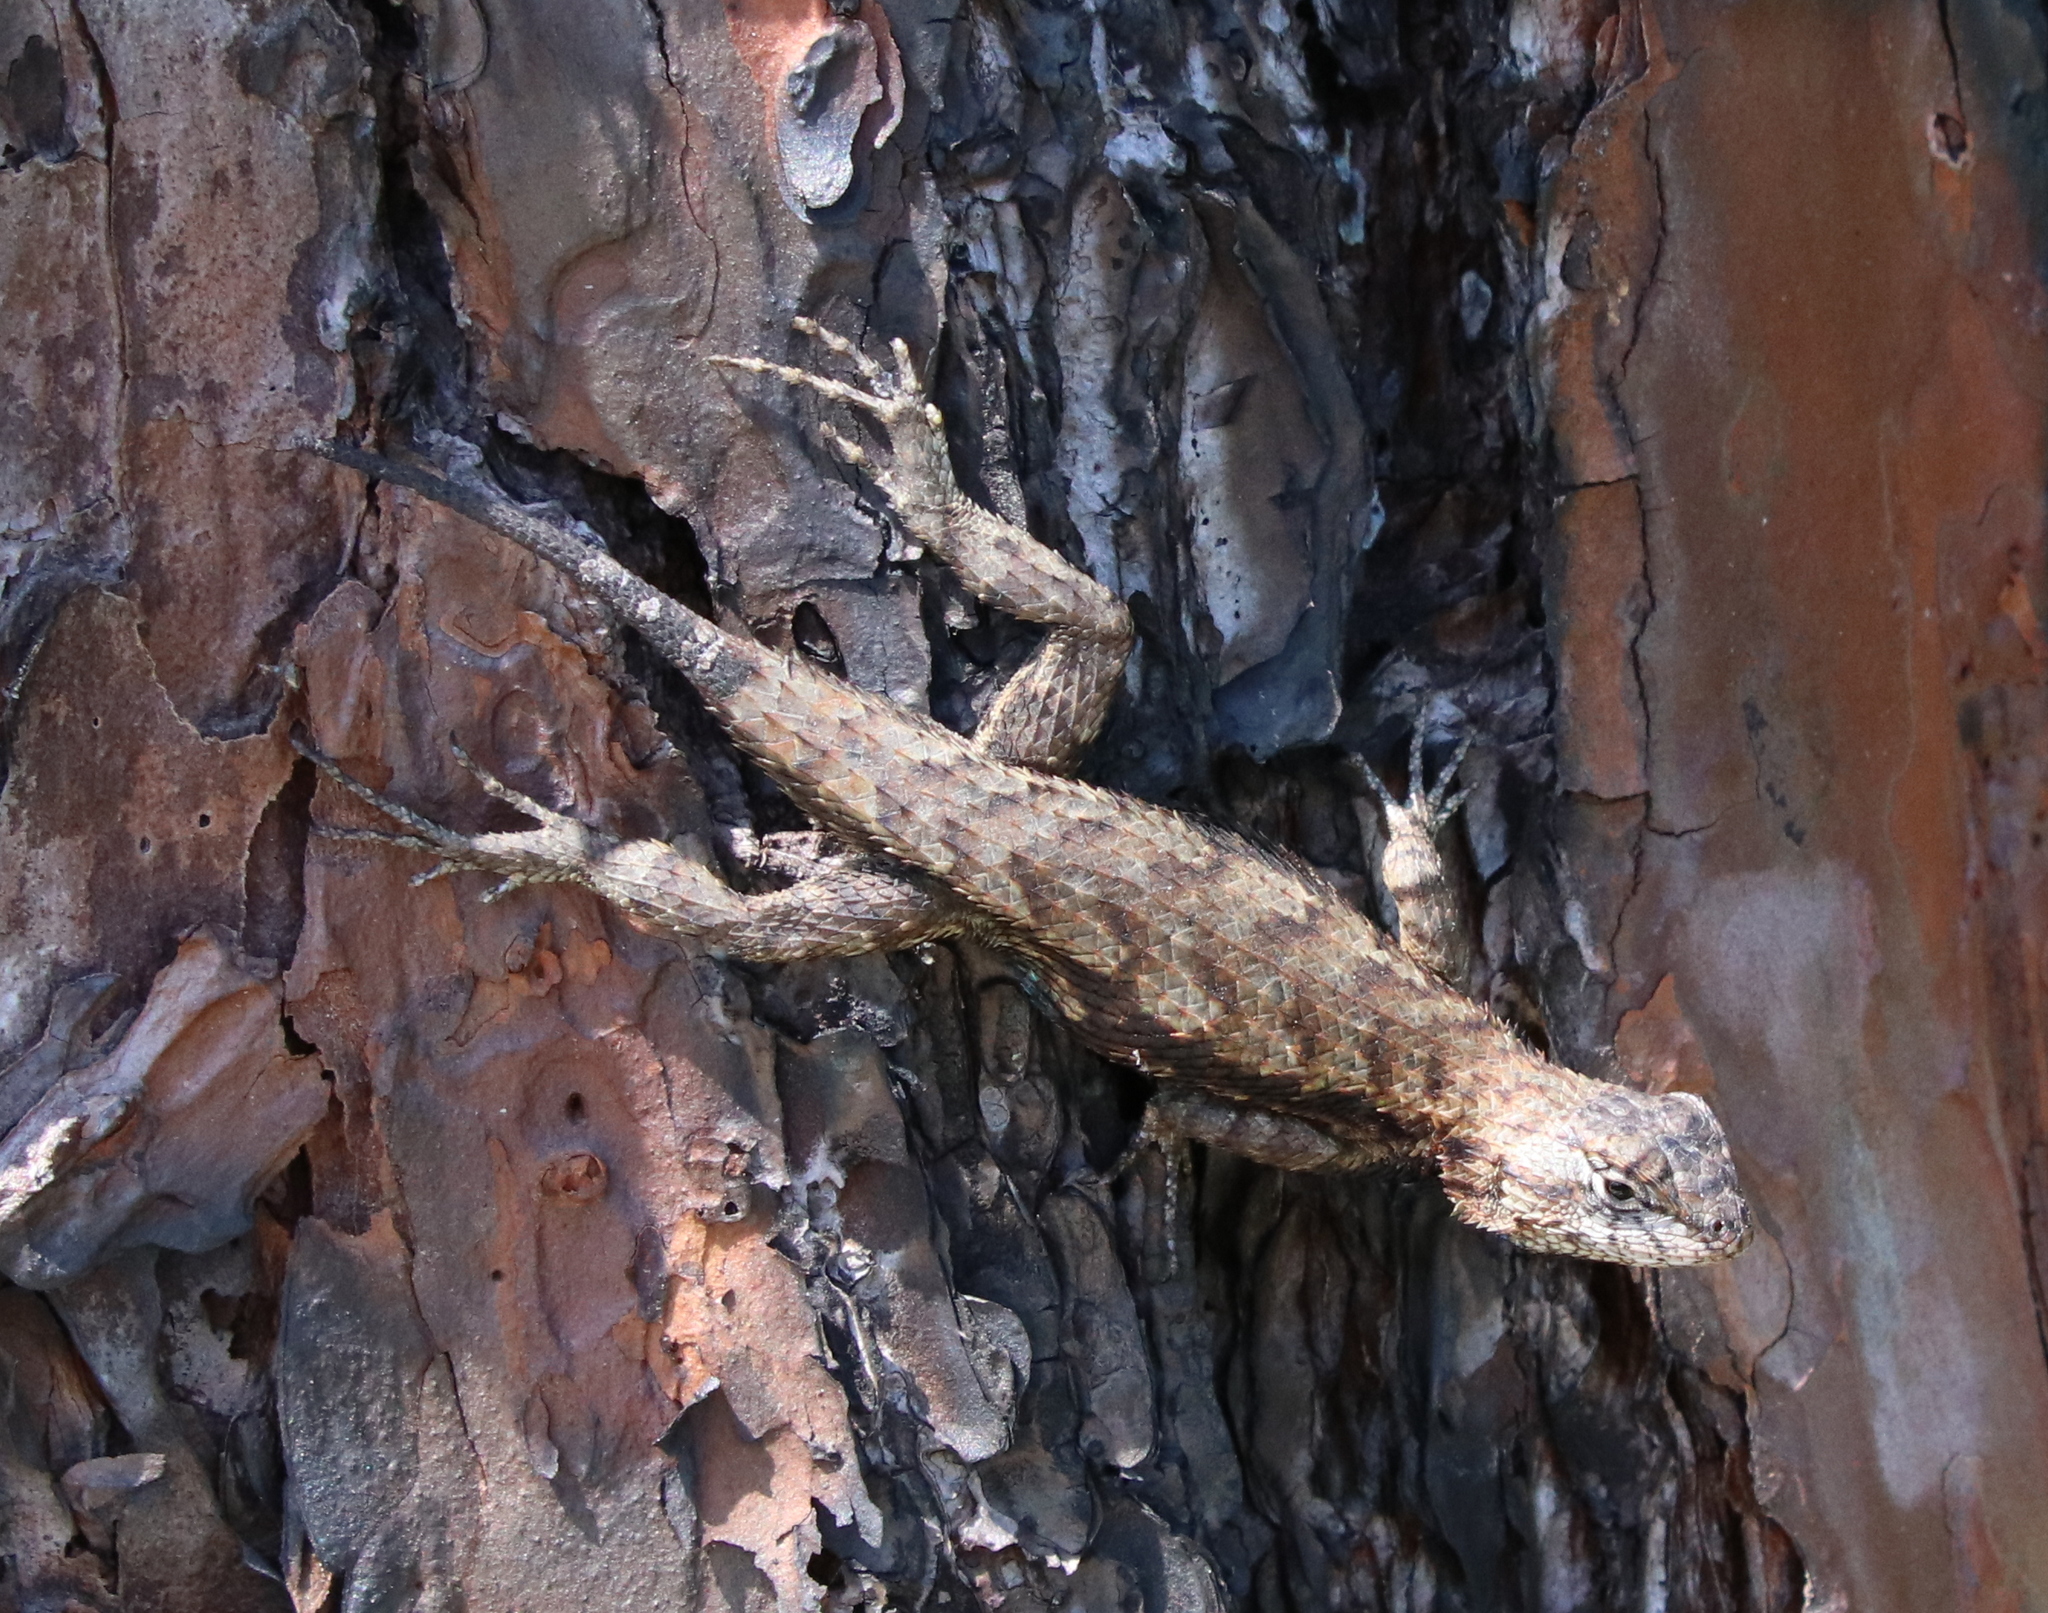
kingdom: Animalia
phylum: Chordata
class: Squamata
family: Phrynosomatidae
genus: Sceloporus
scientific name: Sceloporus undulatus
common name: Eastern fence lizard
